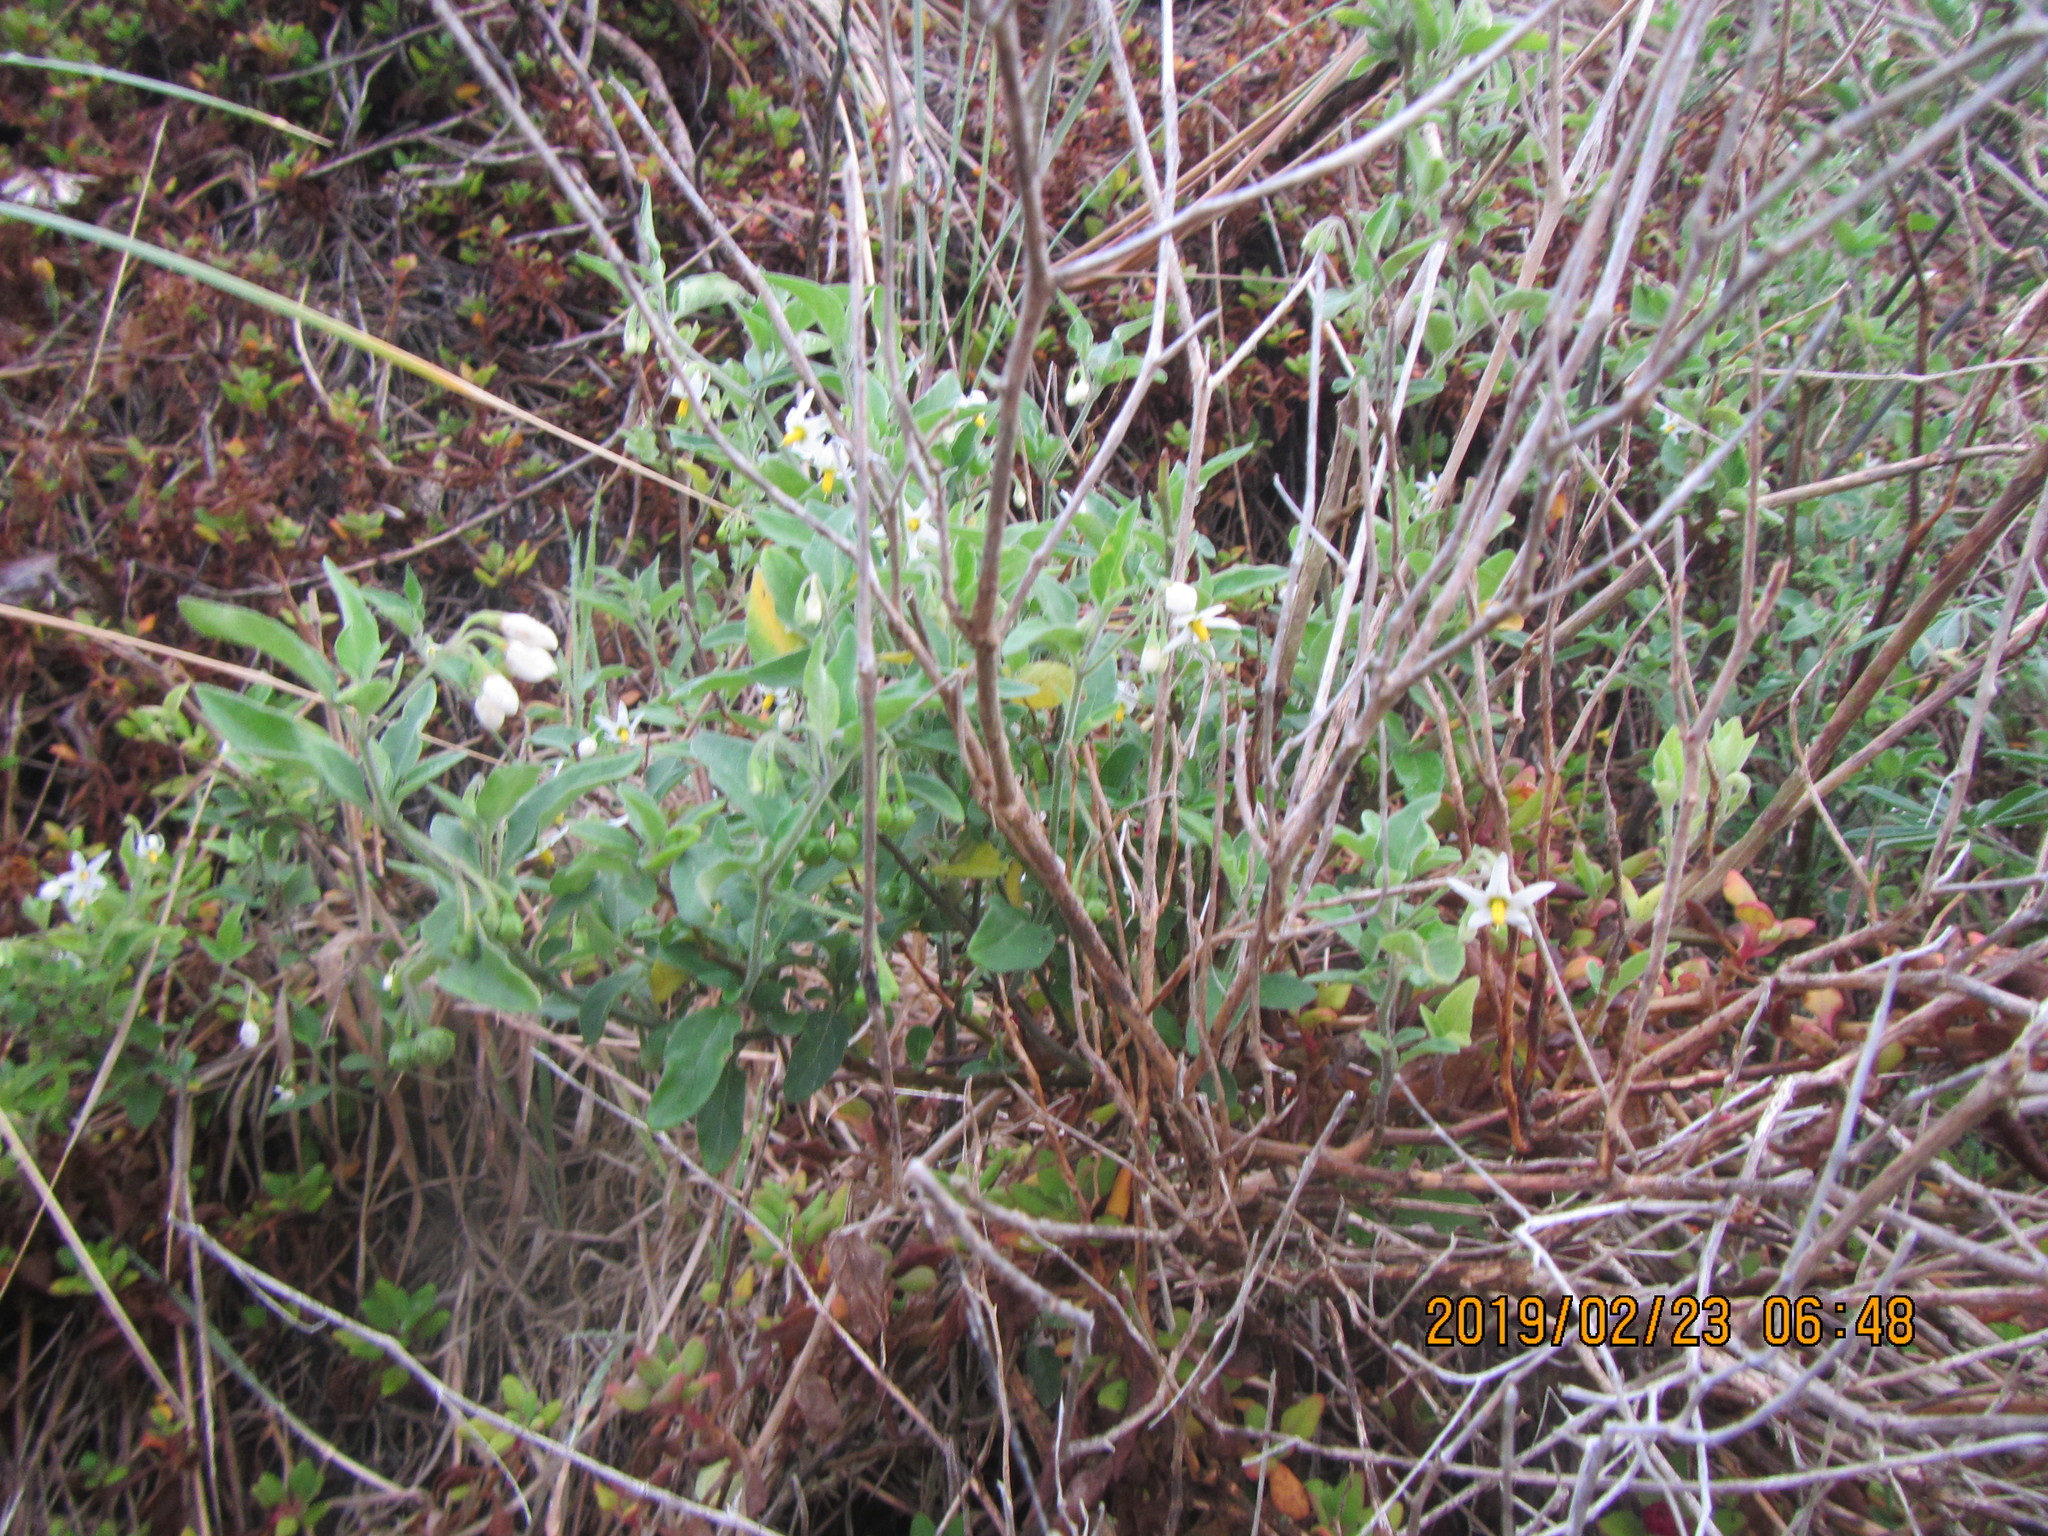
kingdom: Plantae
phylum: Tracheophyta
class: Magnoliopsida
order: Solanales
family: Solanaceae
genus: Solanum
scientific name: Solanum chenopodioides
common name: Tall nightshade
